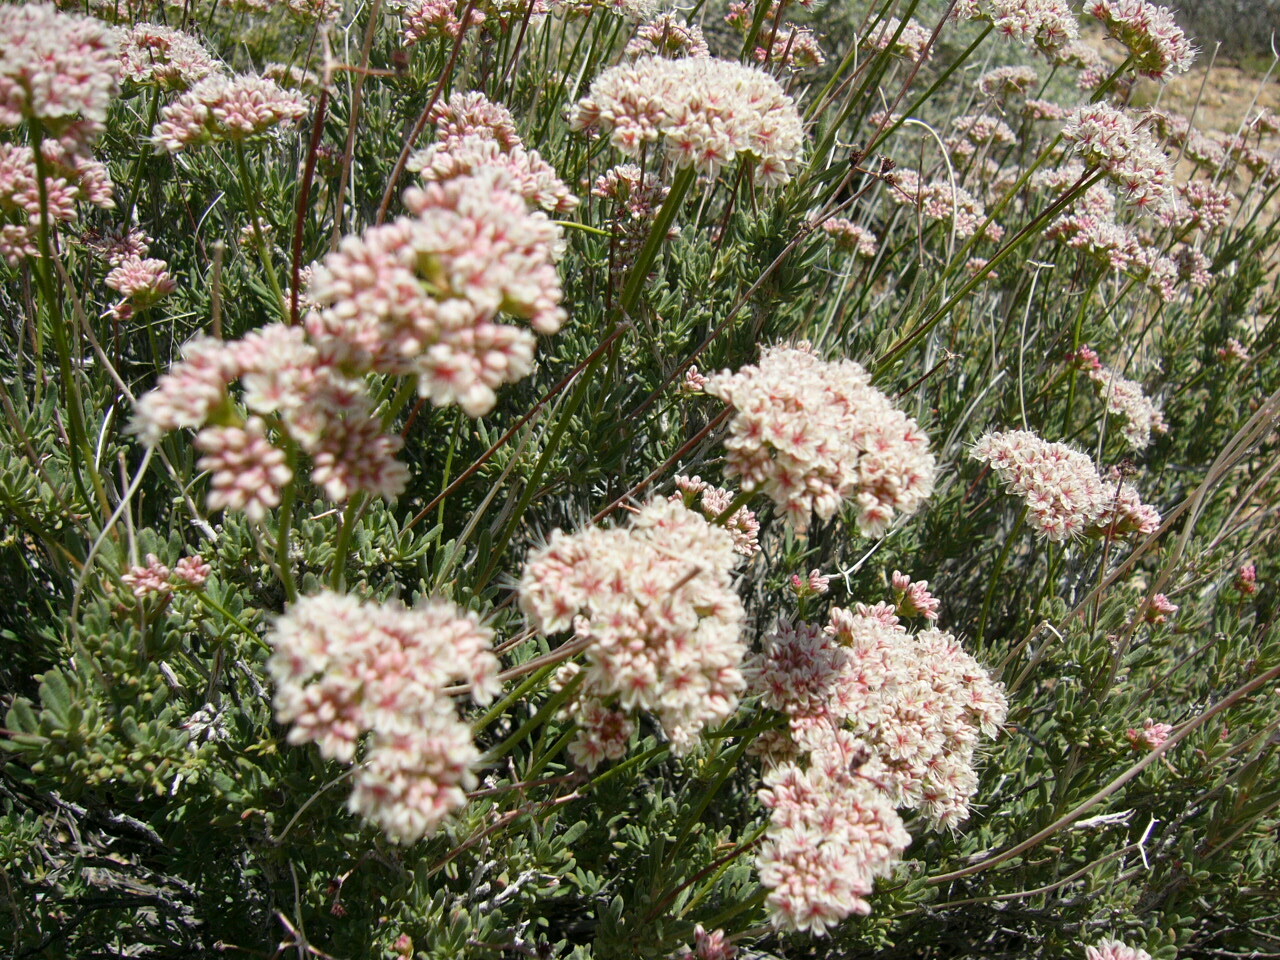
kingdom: Plantae
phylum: Tracheophyta
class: Magnoliopsida
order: Caryophyllales
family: Polygonaceae
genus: Eriogonum
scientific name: Eriogonum fasciculatum
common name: California wild buckwheat
